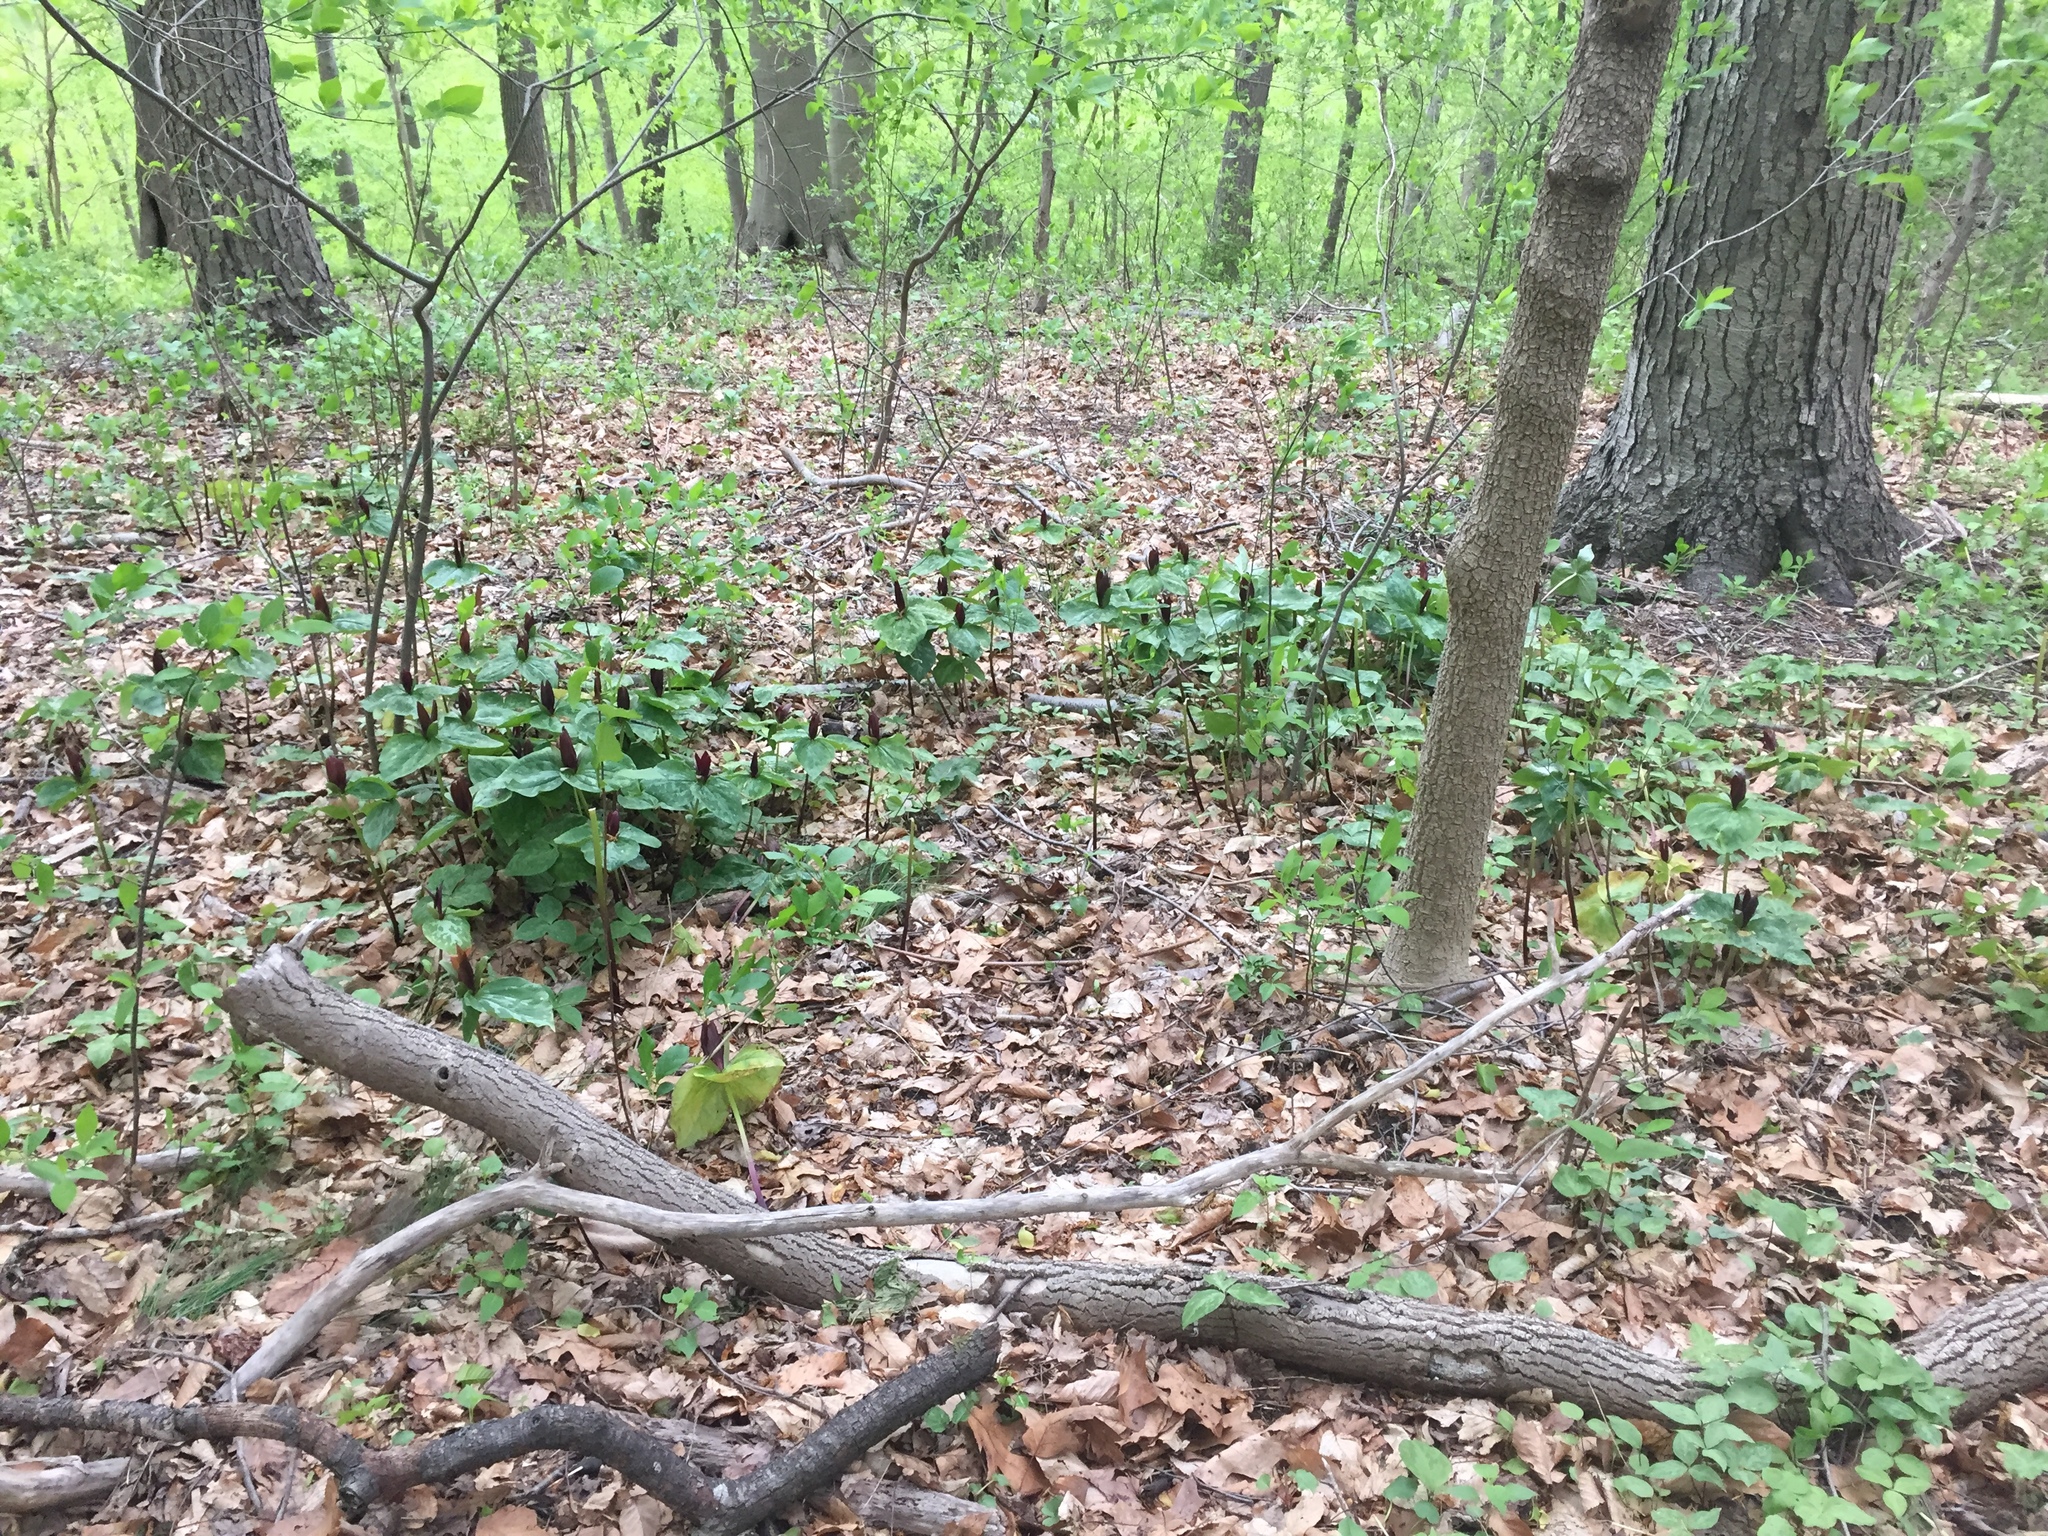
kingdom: Plantae
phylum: Tracheophyta
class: Liliopsida
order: Liliales
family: Melanthiaceae
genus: Trillium
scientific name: Trillium cuneatum
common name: Cuneate trillium
